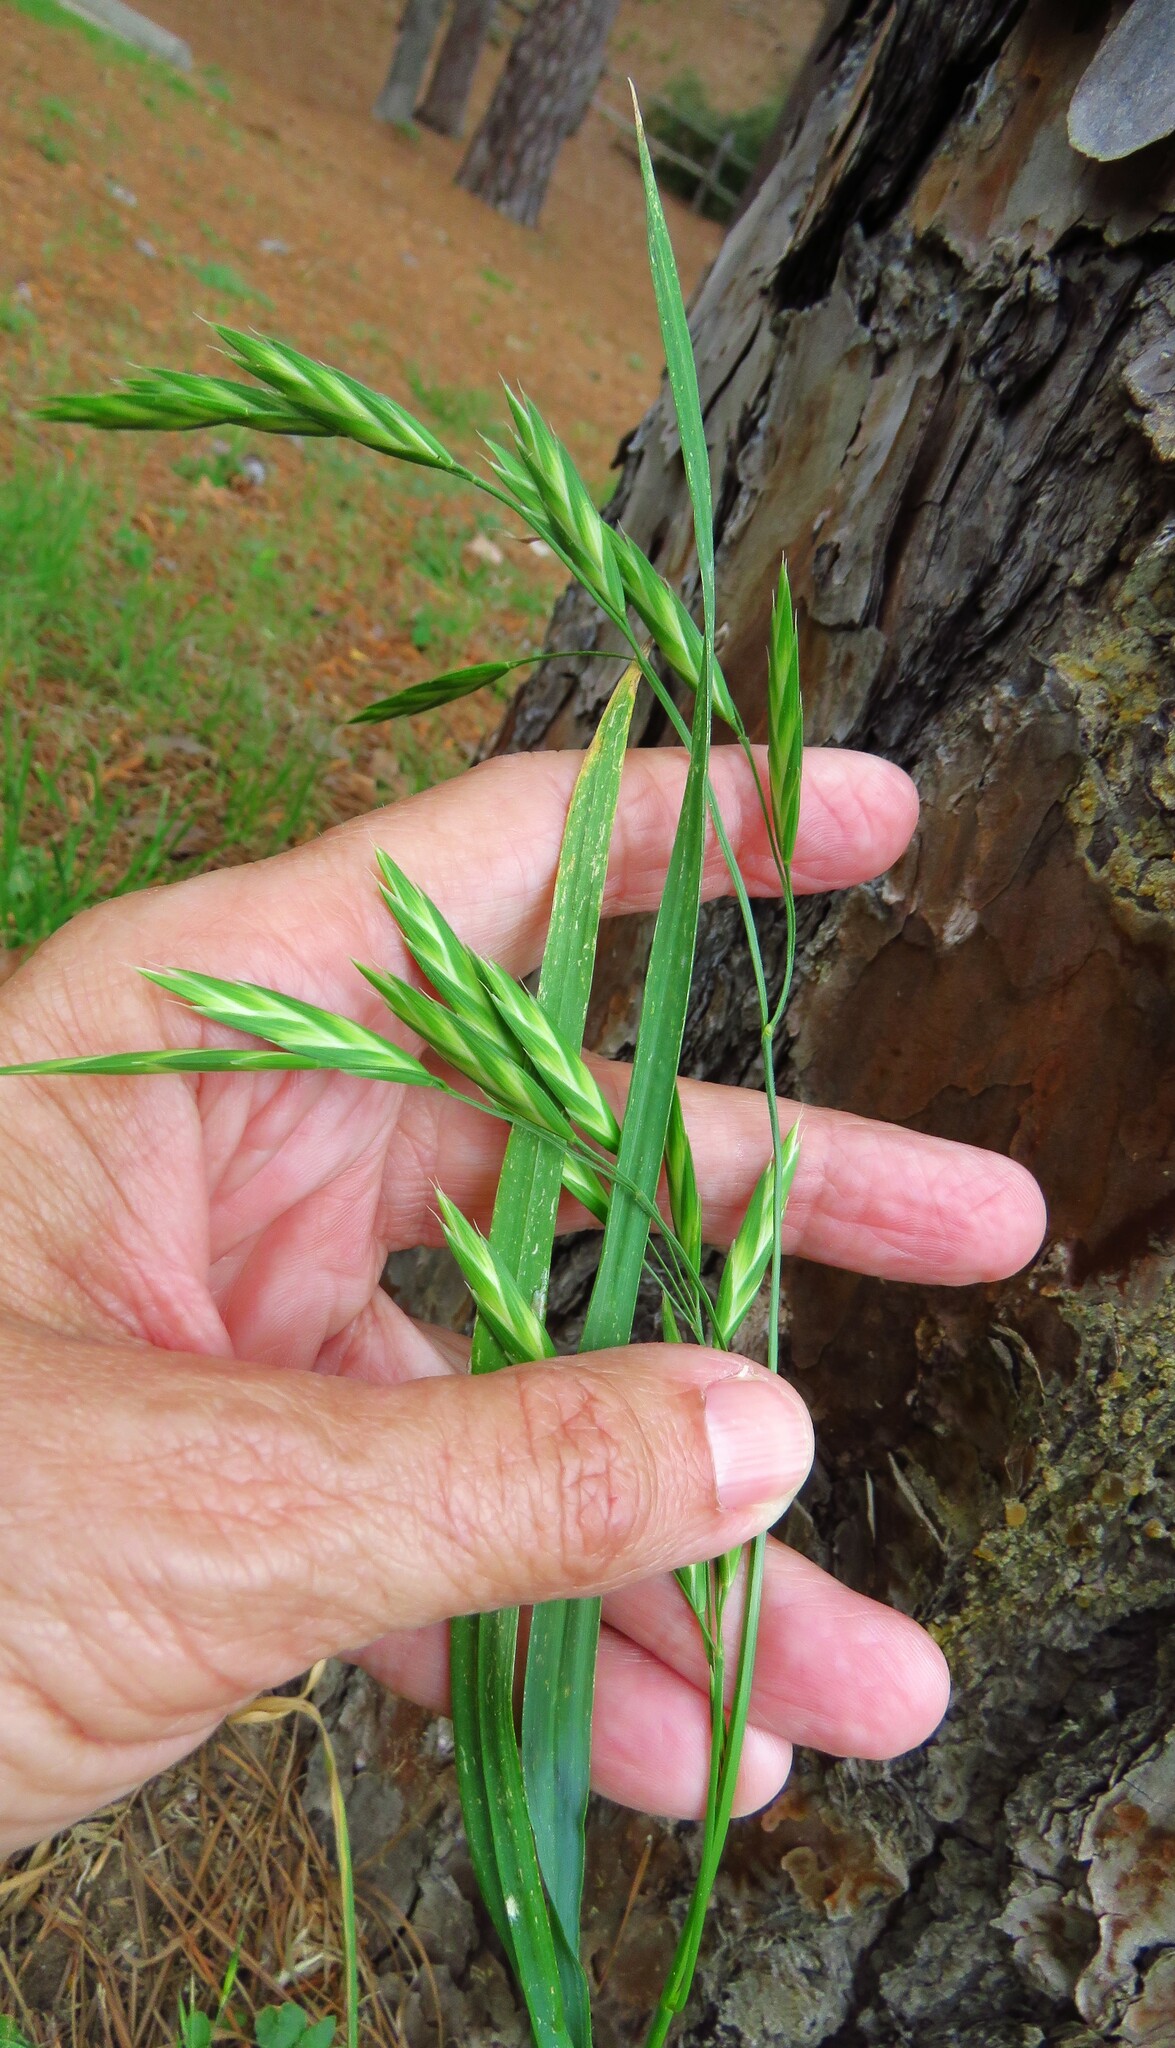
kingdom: Plantae
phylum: Tracheophyta
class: Liliopsida
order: Poales
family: Poaceae
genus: Bromus
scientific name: Bromus catharticus
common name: Rescuegrass
